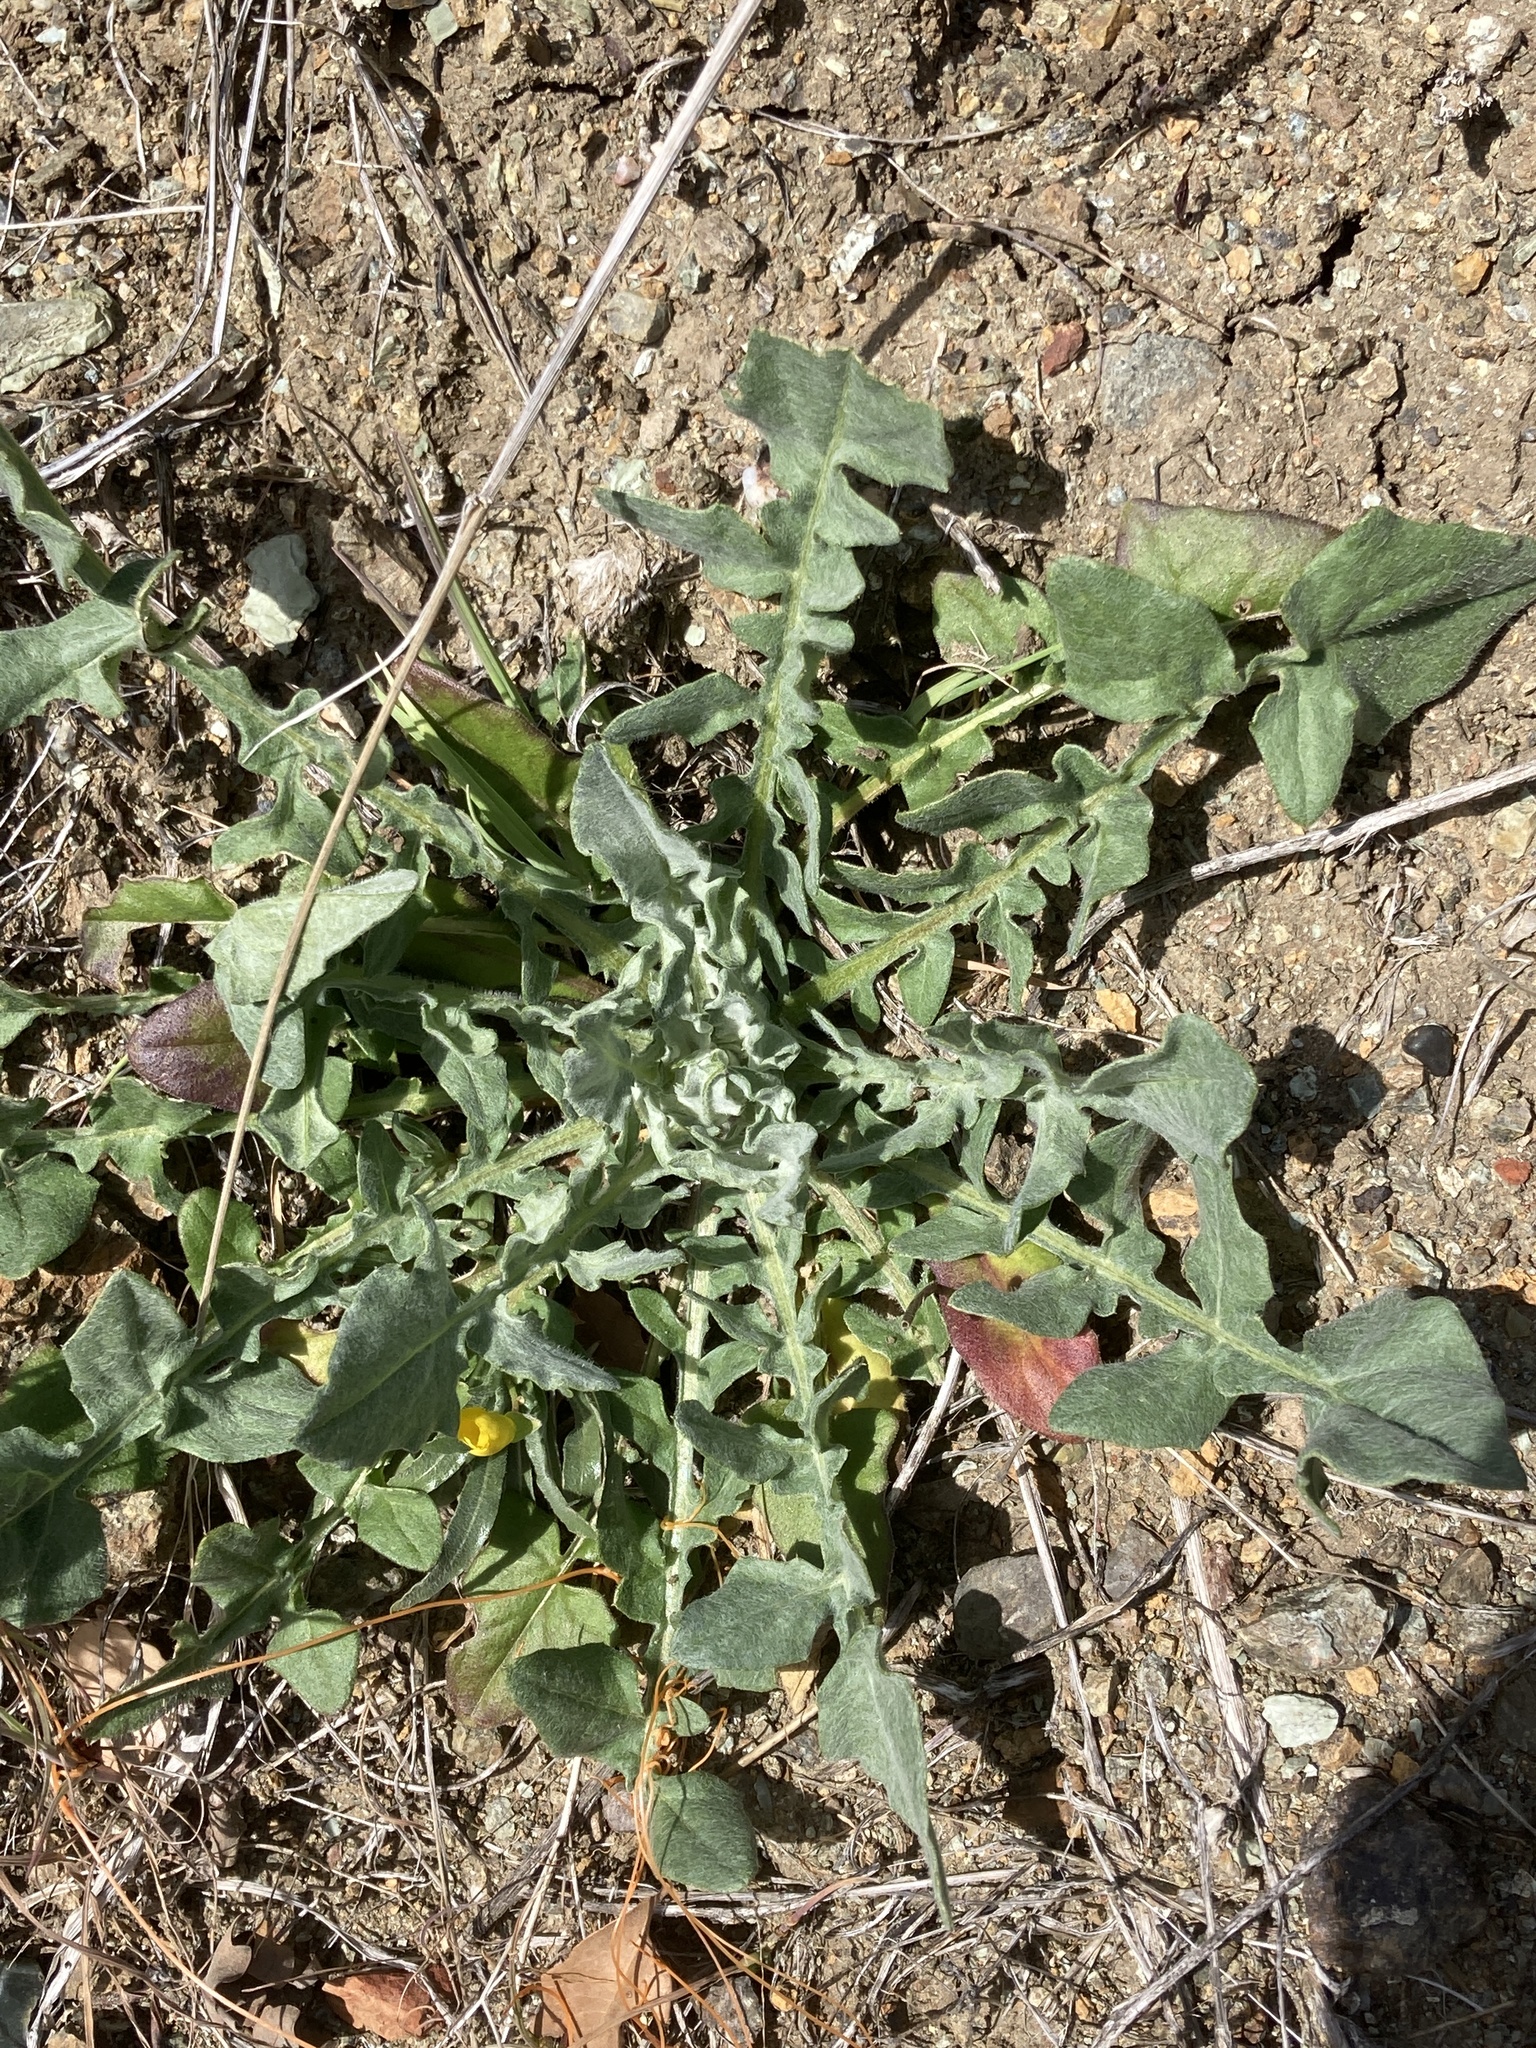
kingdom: Plantae
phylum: Tracheophyta
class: Magnoliopsida
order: Asterales
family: Asteraceae
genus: Centaurea
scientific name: Centaurea solstitialis
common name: Yellow star-thistle
